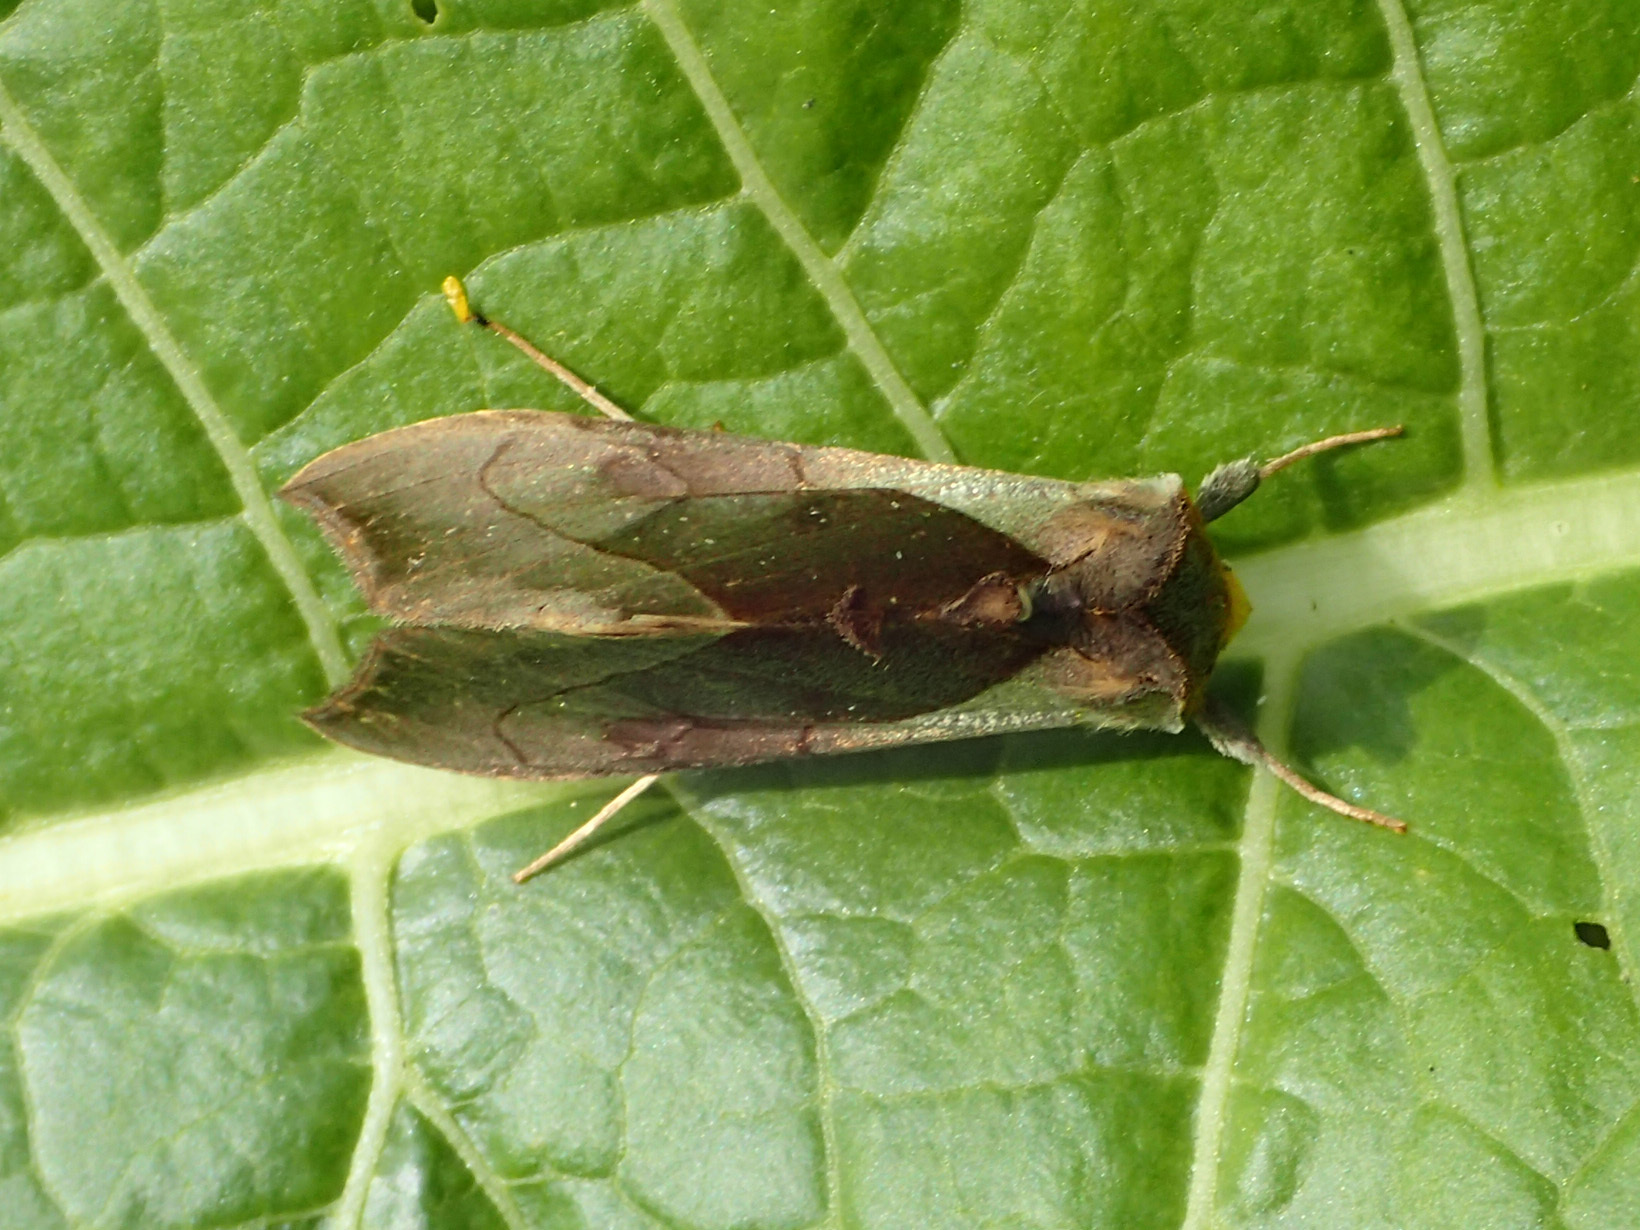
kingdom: Animalia
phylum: Arthropoda
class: Insecta
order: Lepidoptera
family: Noctuidae
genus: Diachrysia
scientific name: Diachrysia balluca
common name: Green-patched looper moth
